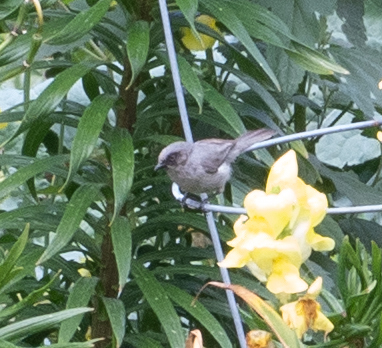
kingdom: Animalia
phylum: Chordata
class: Aves
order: Passeriformes
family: Aegithalidae
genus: Psaltriparus
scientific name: Psaltriparus minimus
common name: American bushtit
